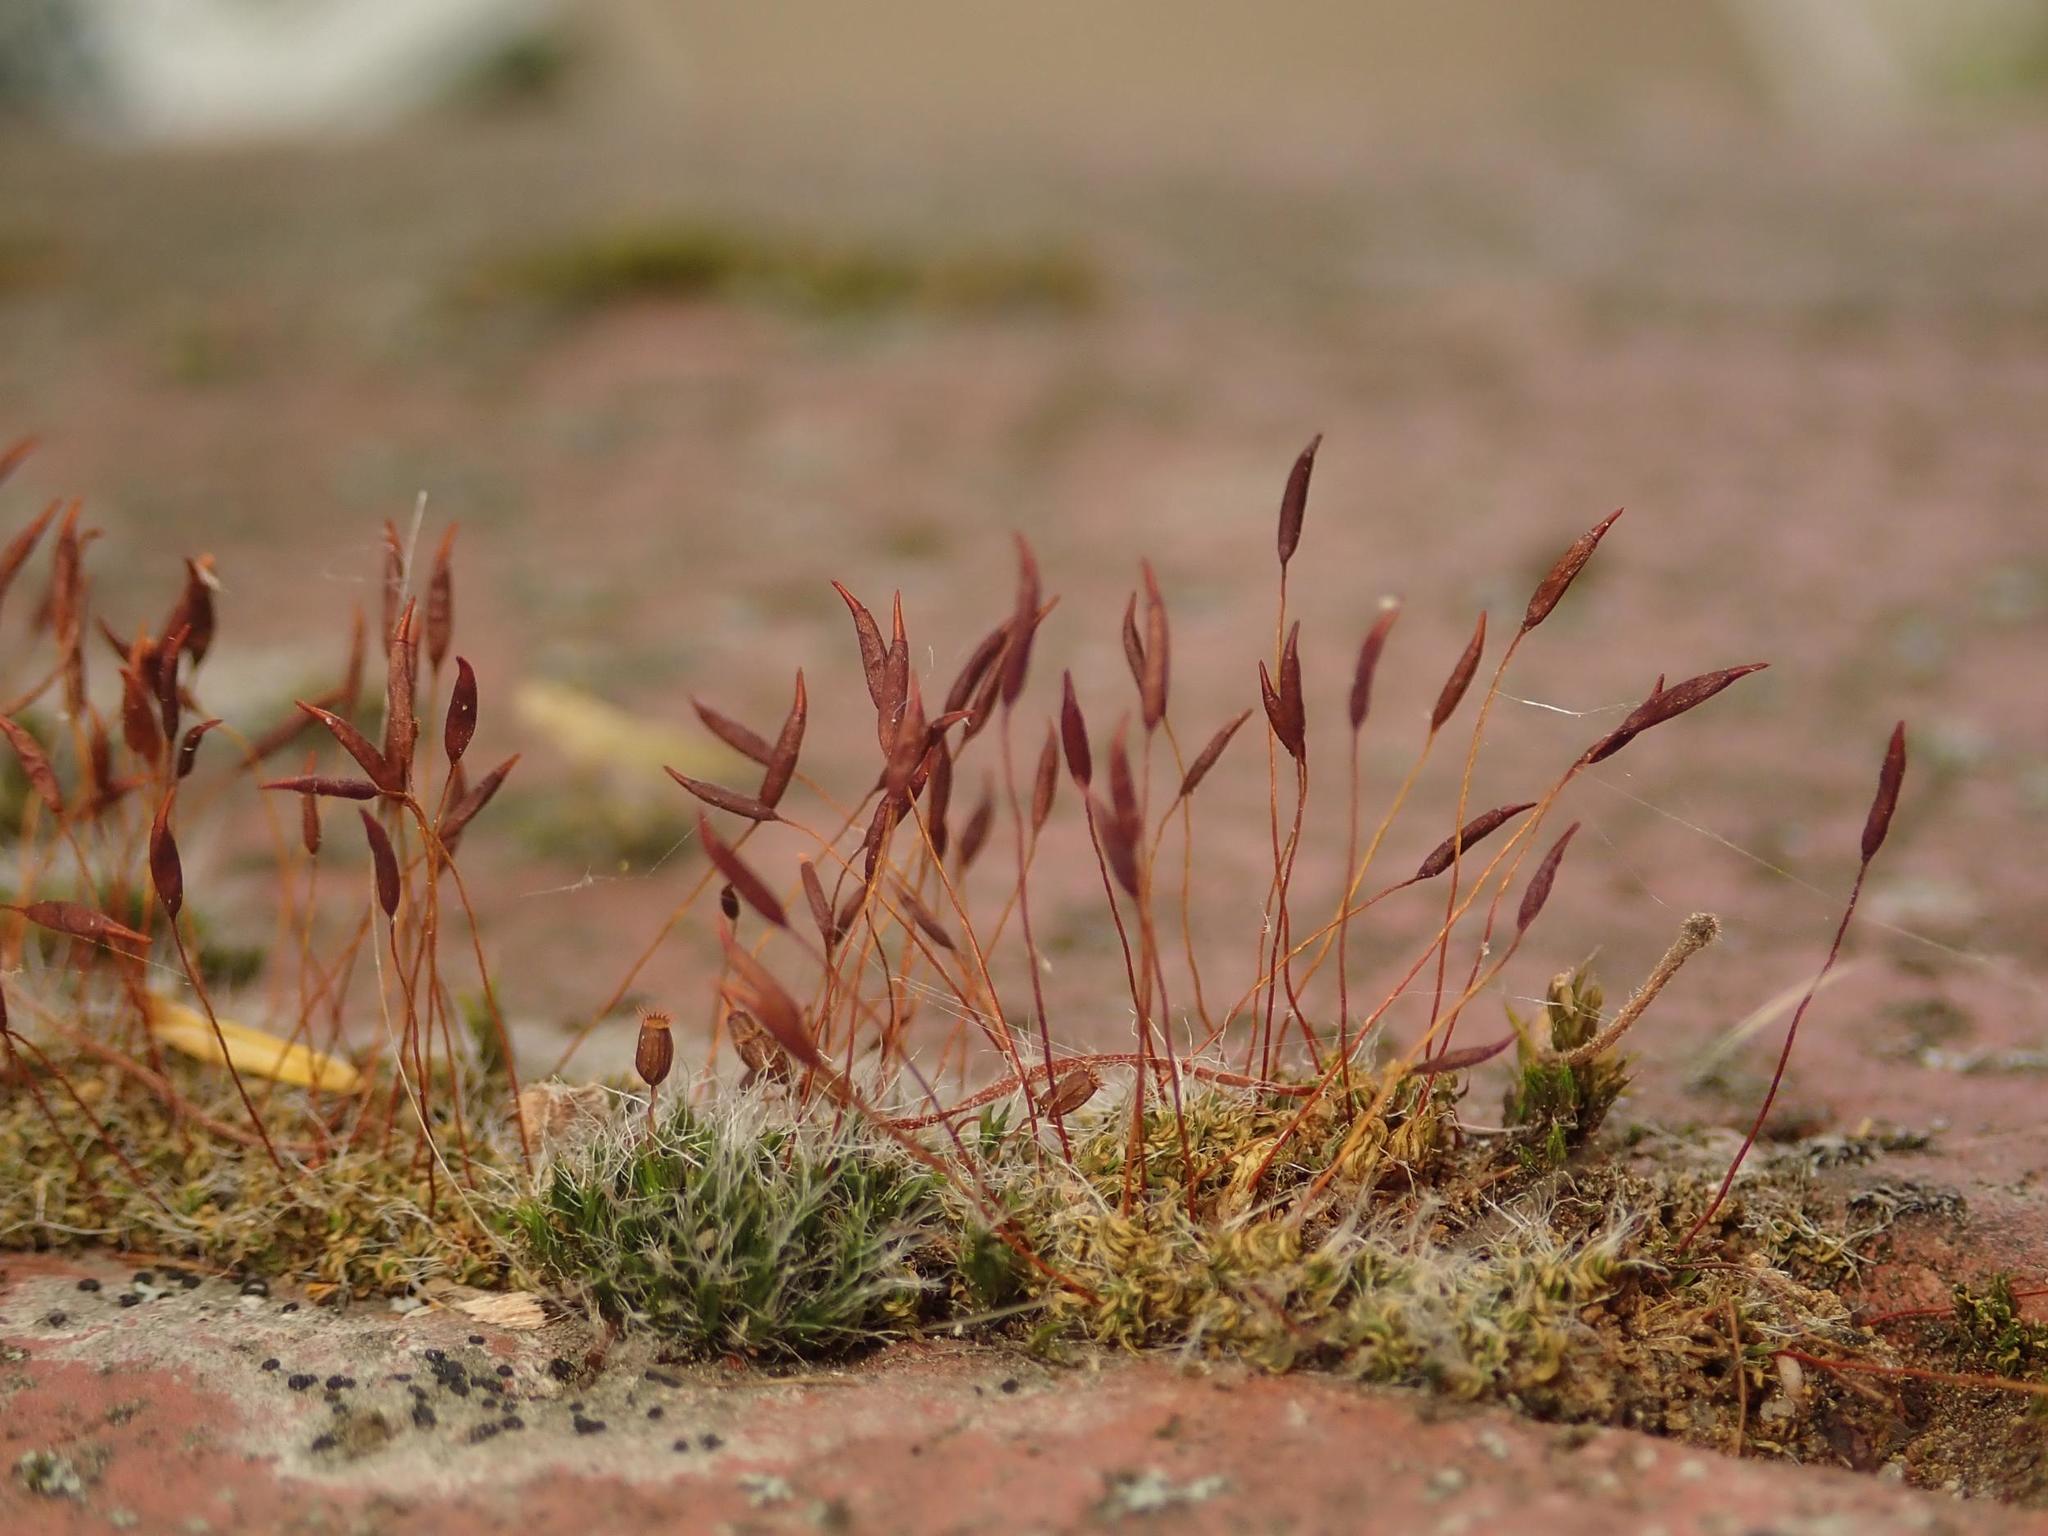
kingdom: Plantae
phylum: Bryophyta
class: Bryopsida
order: Pottiales
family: Pottiaceae
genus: Tortula
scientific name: Tortula muralis
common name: Wall screw-moss
